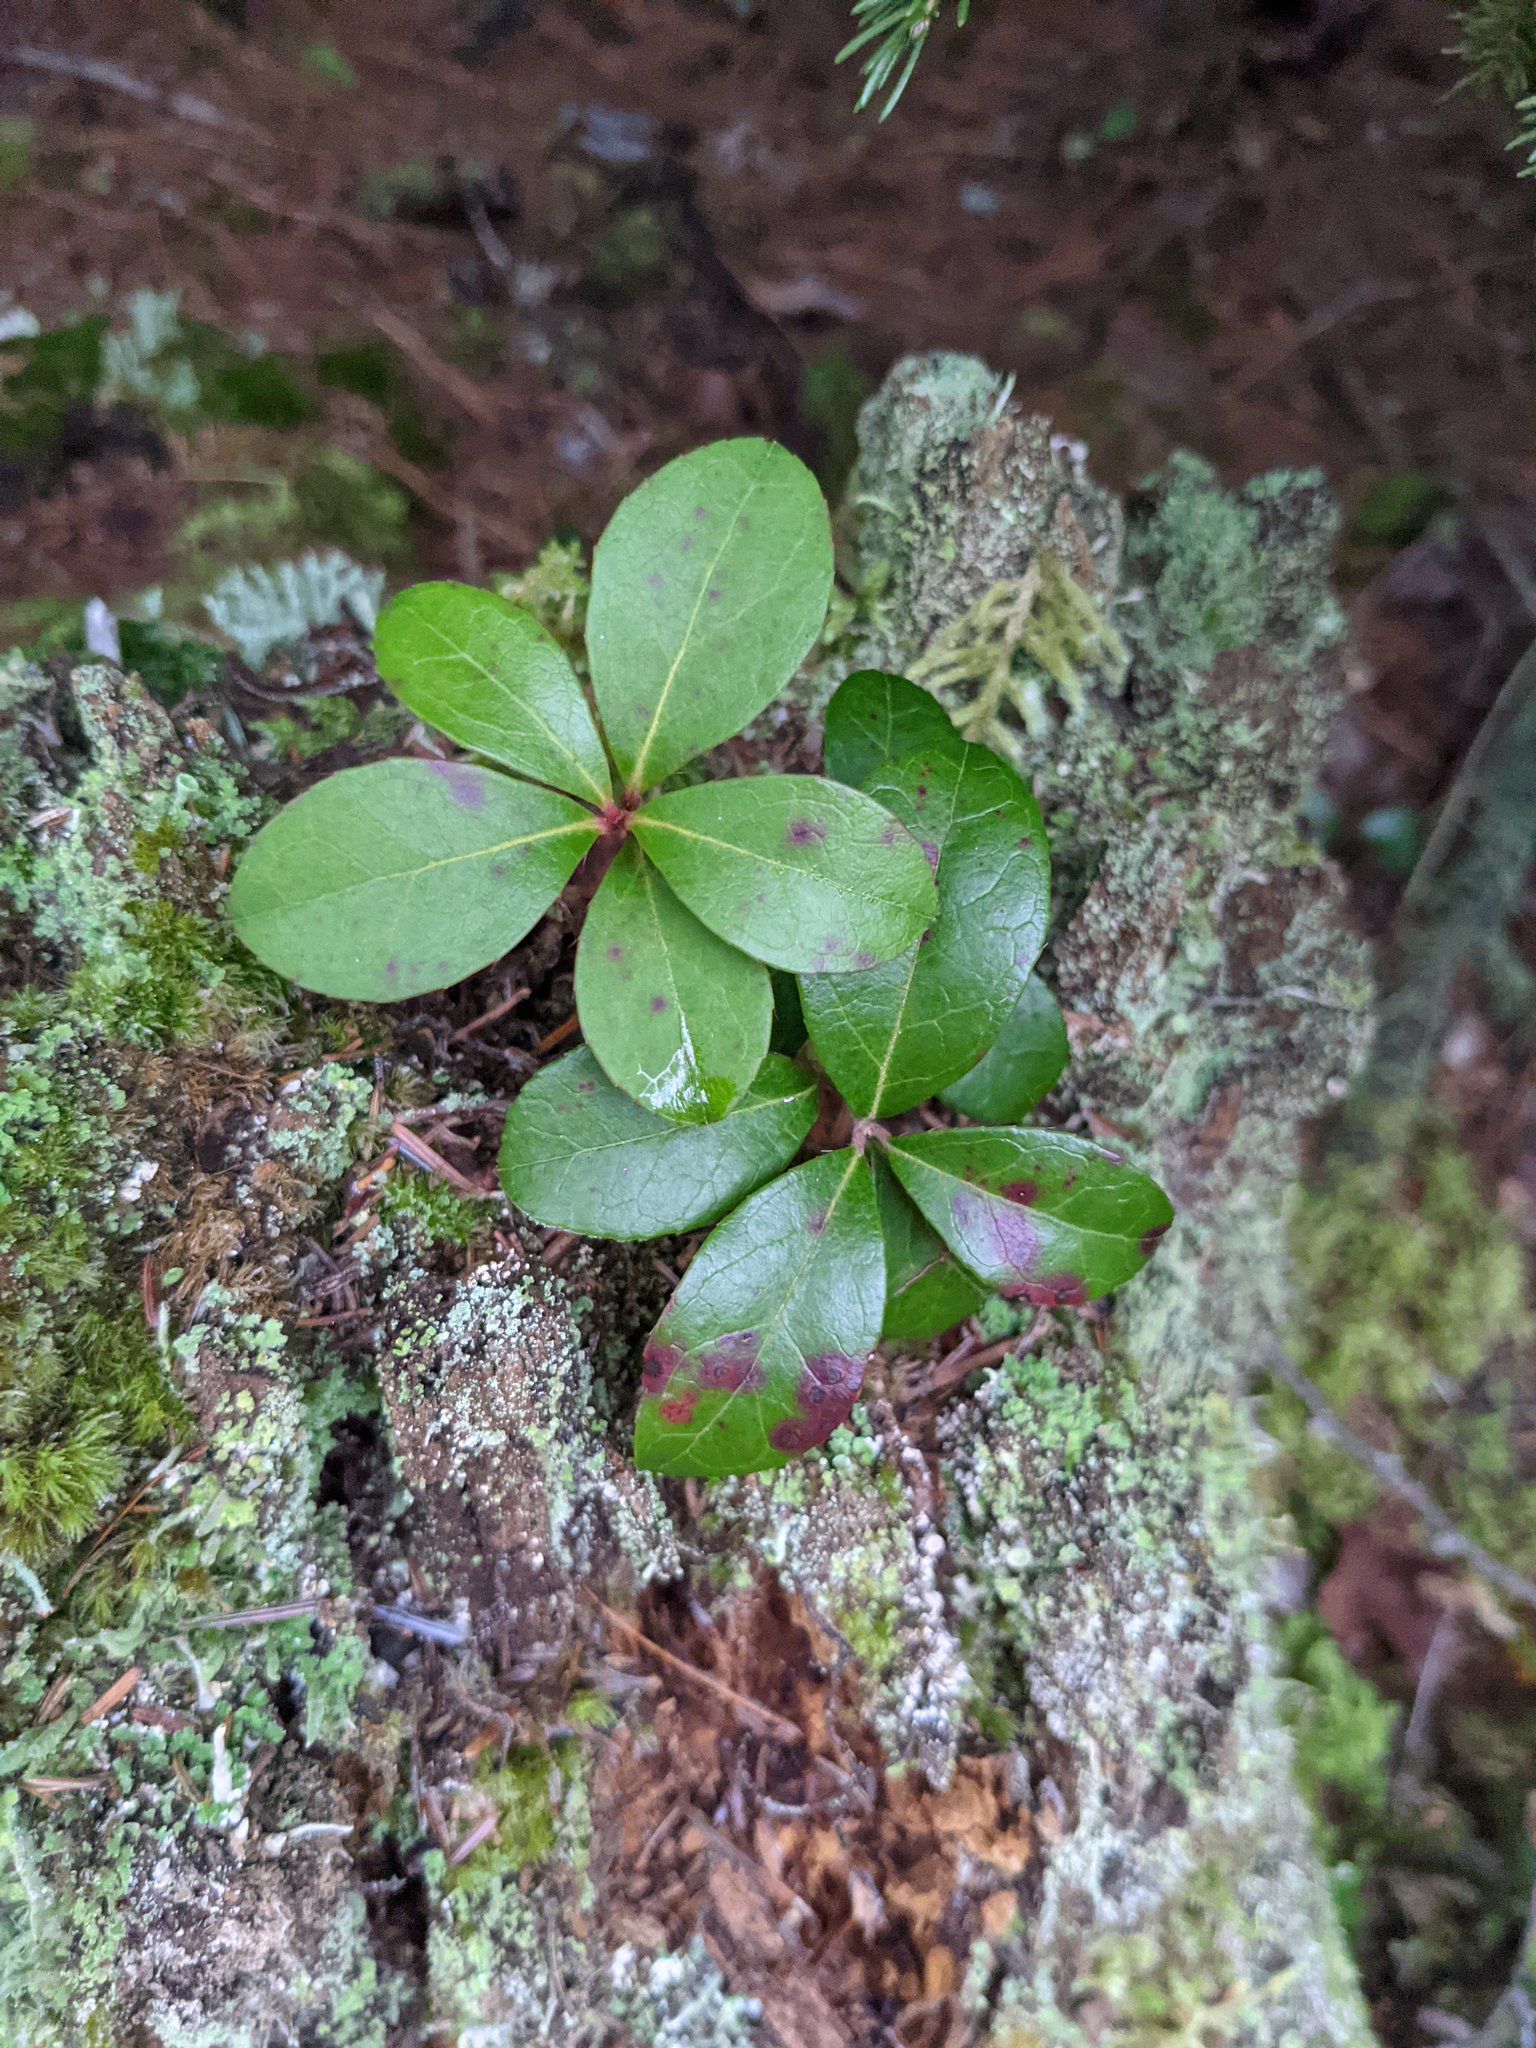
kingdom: Plantae
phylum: Tracheophyta
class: Magnoliopsida
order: Ericales
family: Ericaceae
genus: Gaultheria
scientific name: Gaultheria procumbens
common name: Checkerberry
